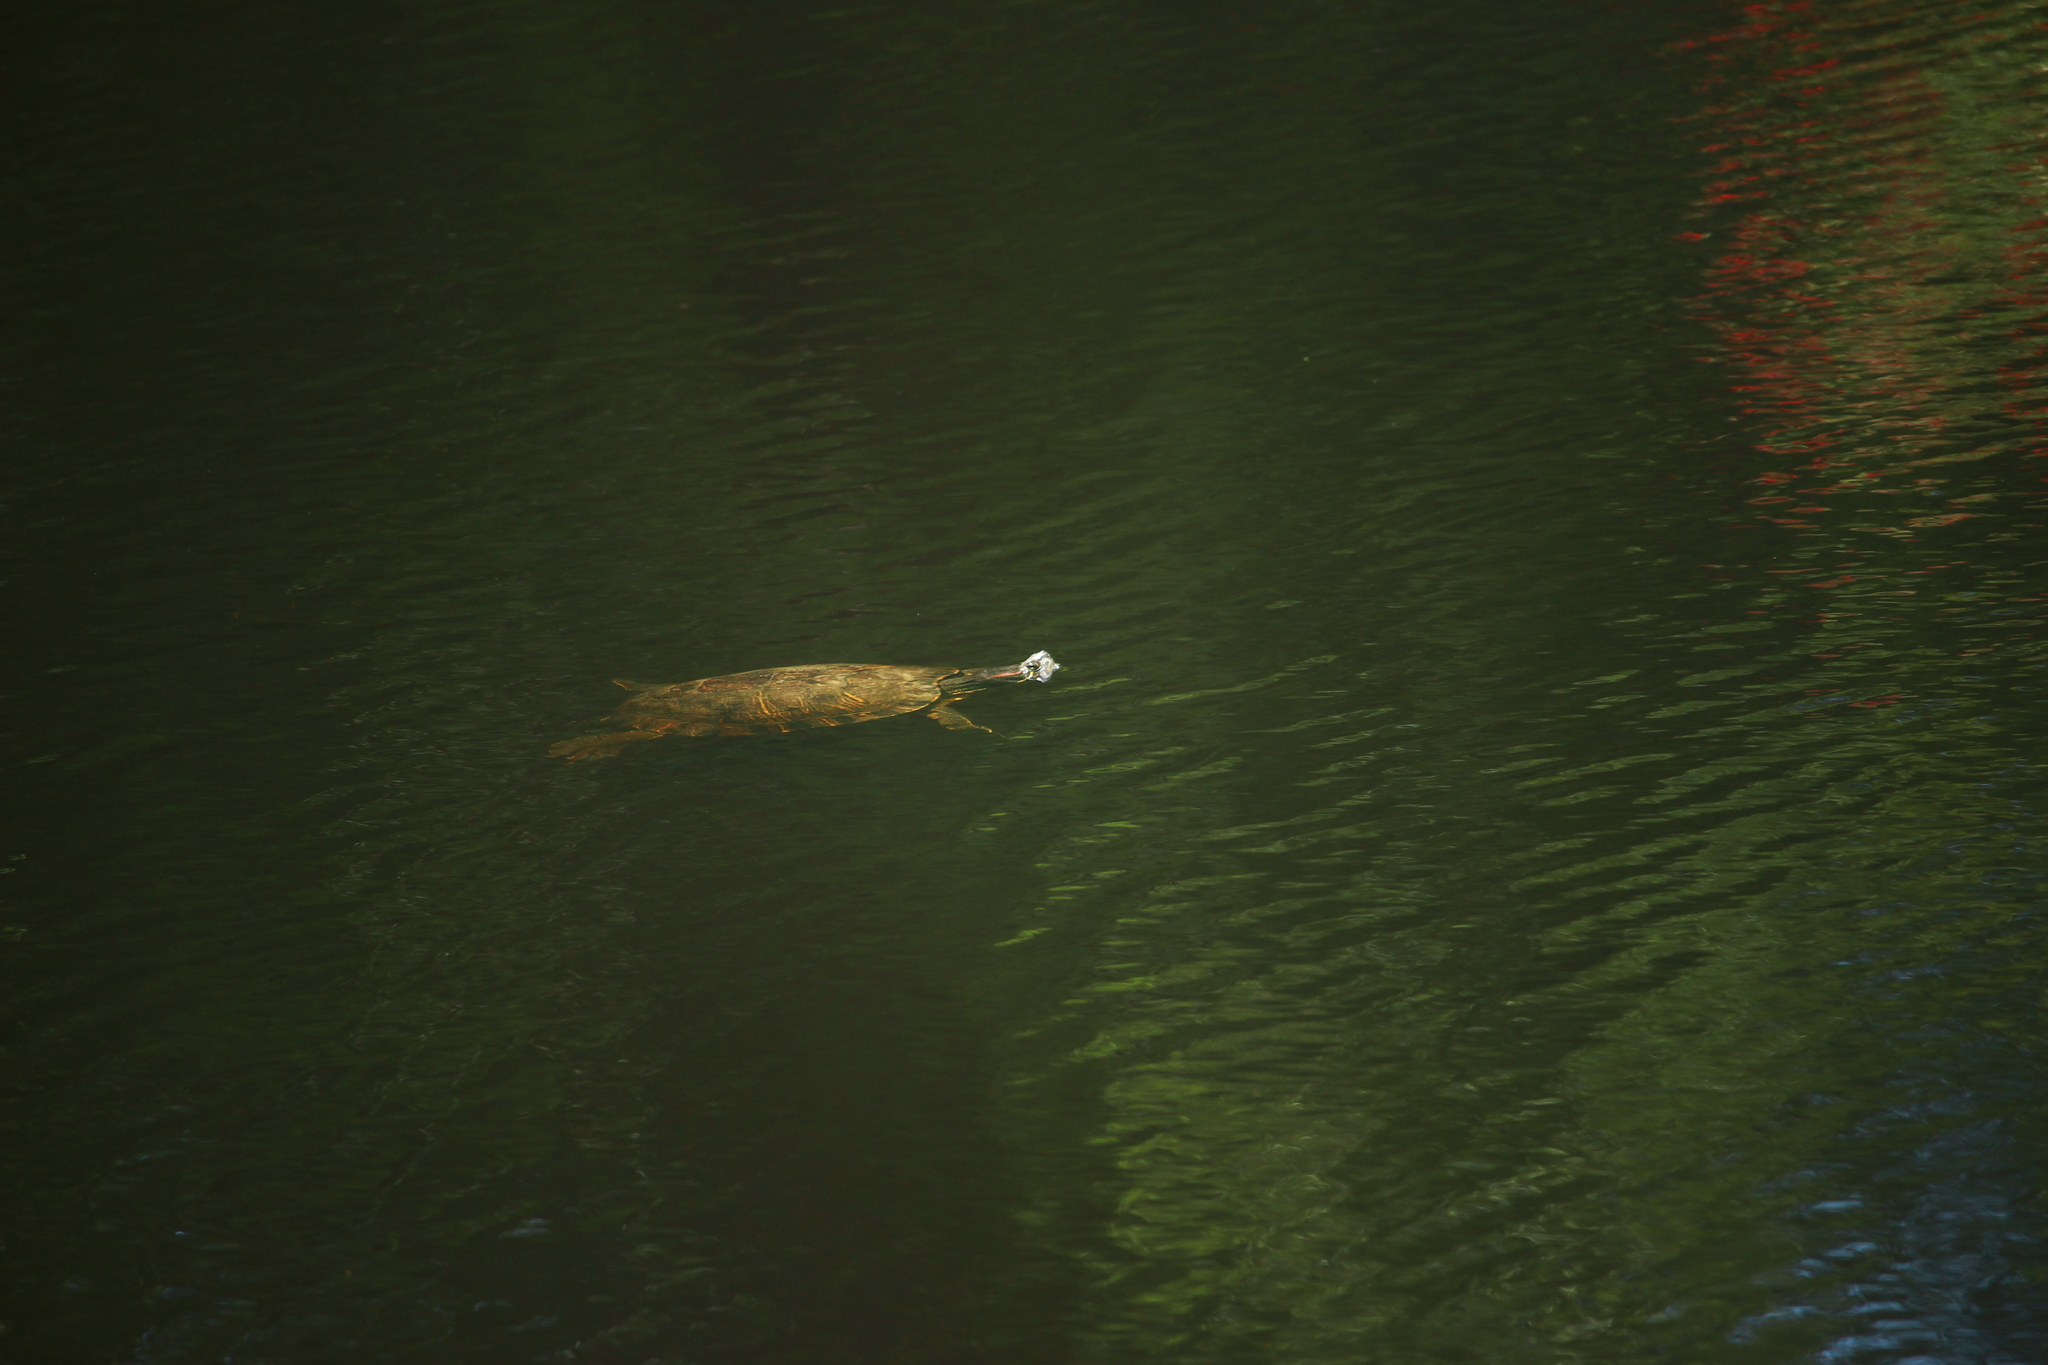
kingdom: Animalia
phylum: Chordata
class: Testudines
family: Emydidae
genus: Trachemys
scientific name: Trachemys scripta
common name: Slider
